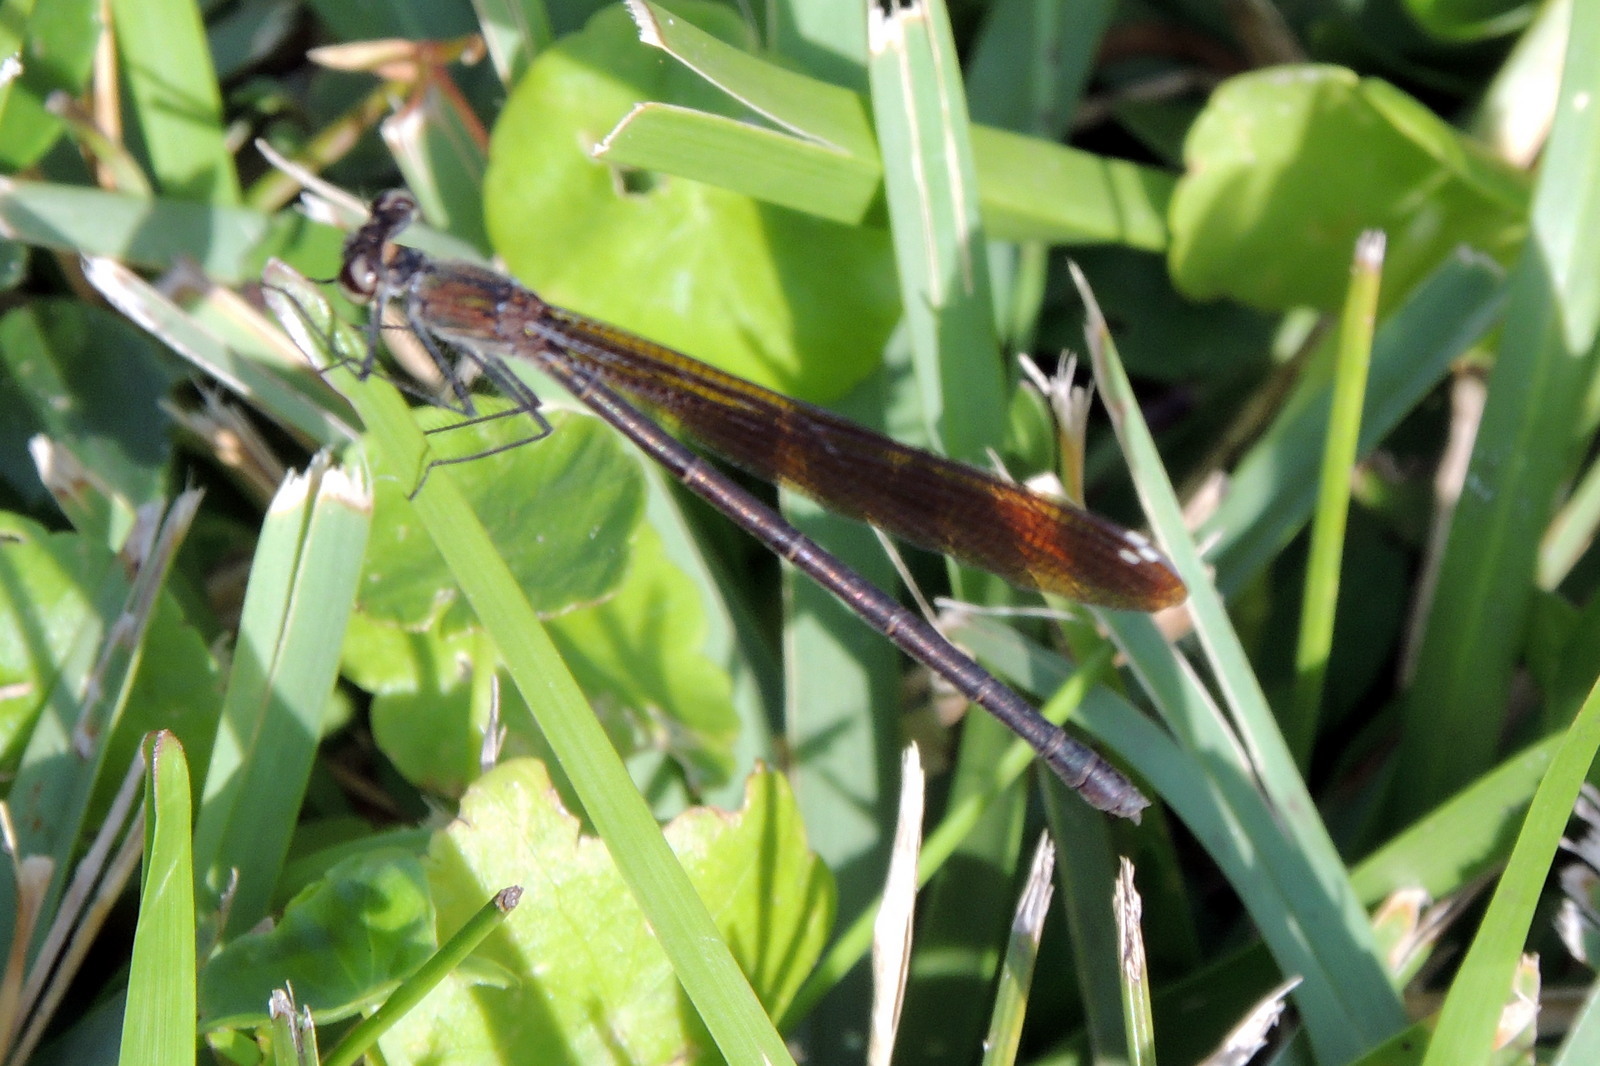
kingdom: Animalia
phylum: Arthropoda
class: Insecta
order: Odonata
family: Calopterygidae
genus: Hetaerina
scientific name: Hetaerina titia
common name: Smoky rubyspot
